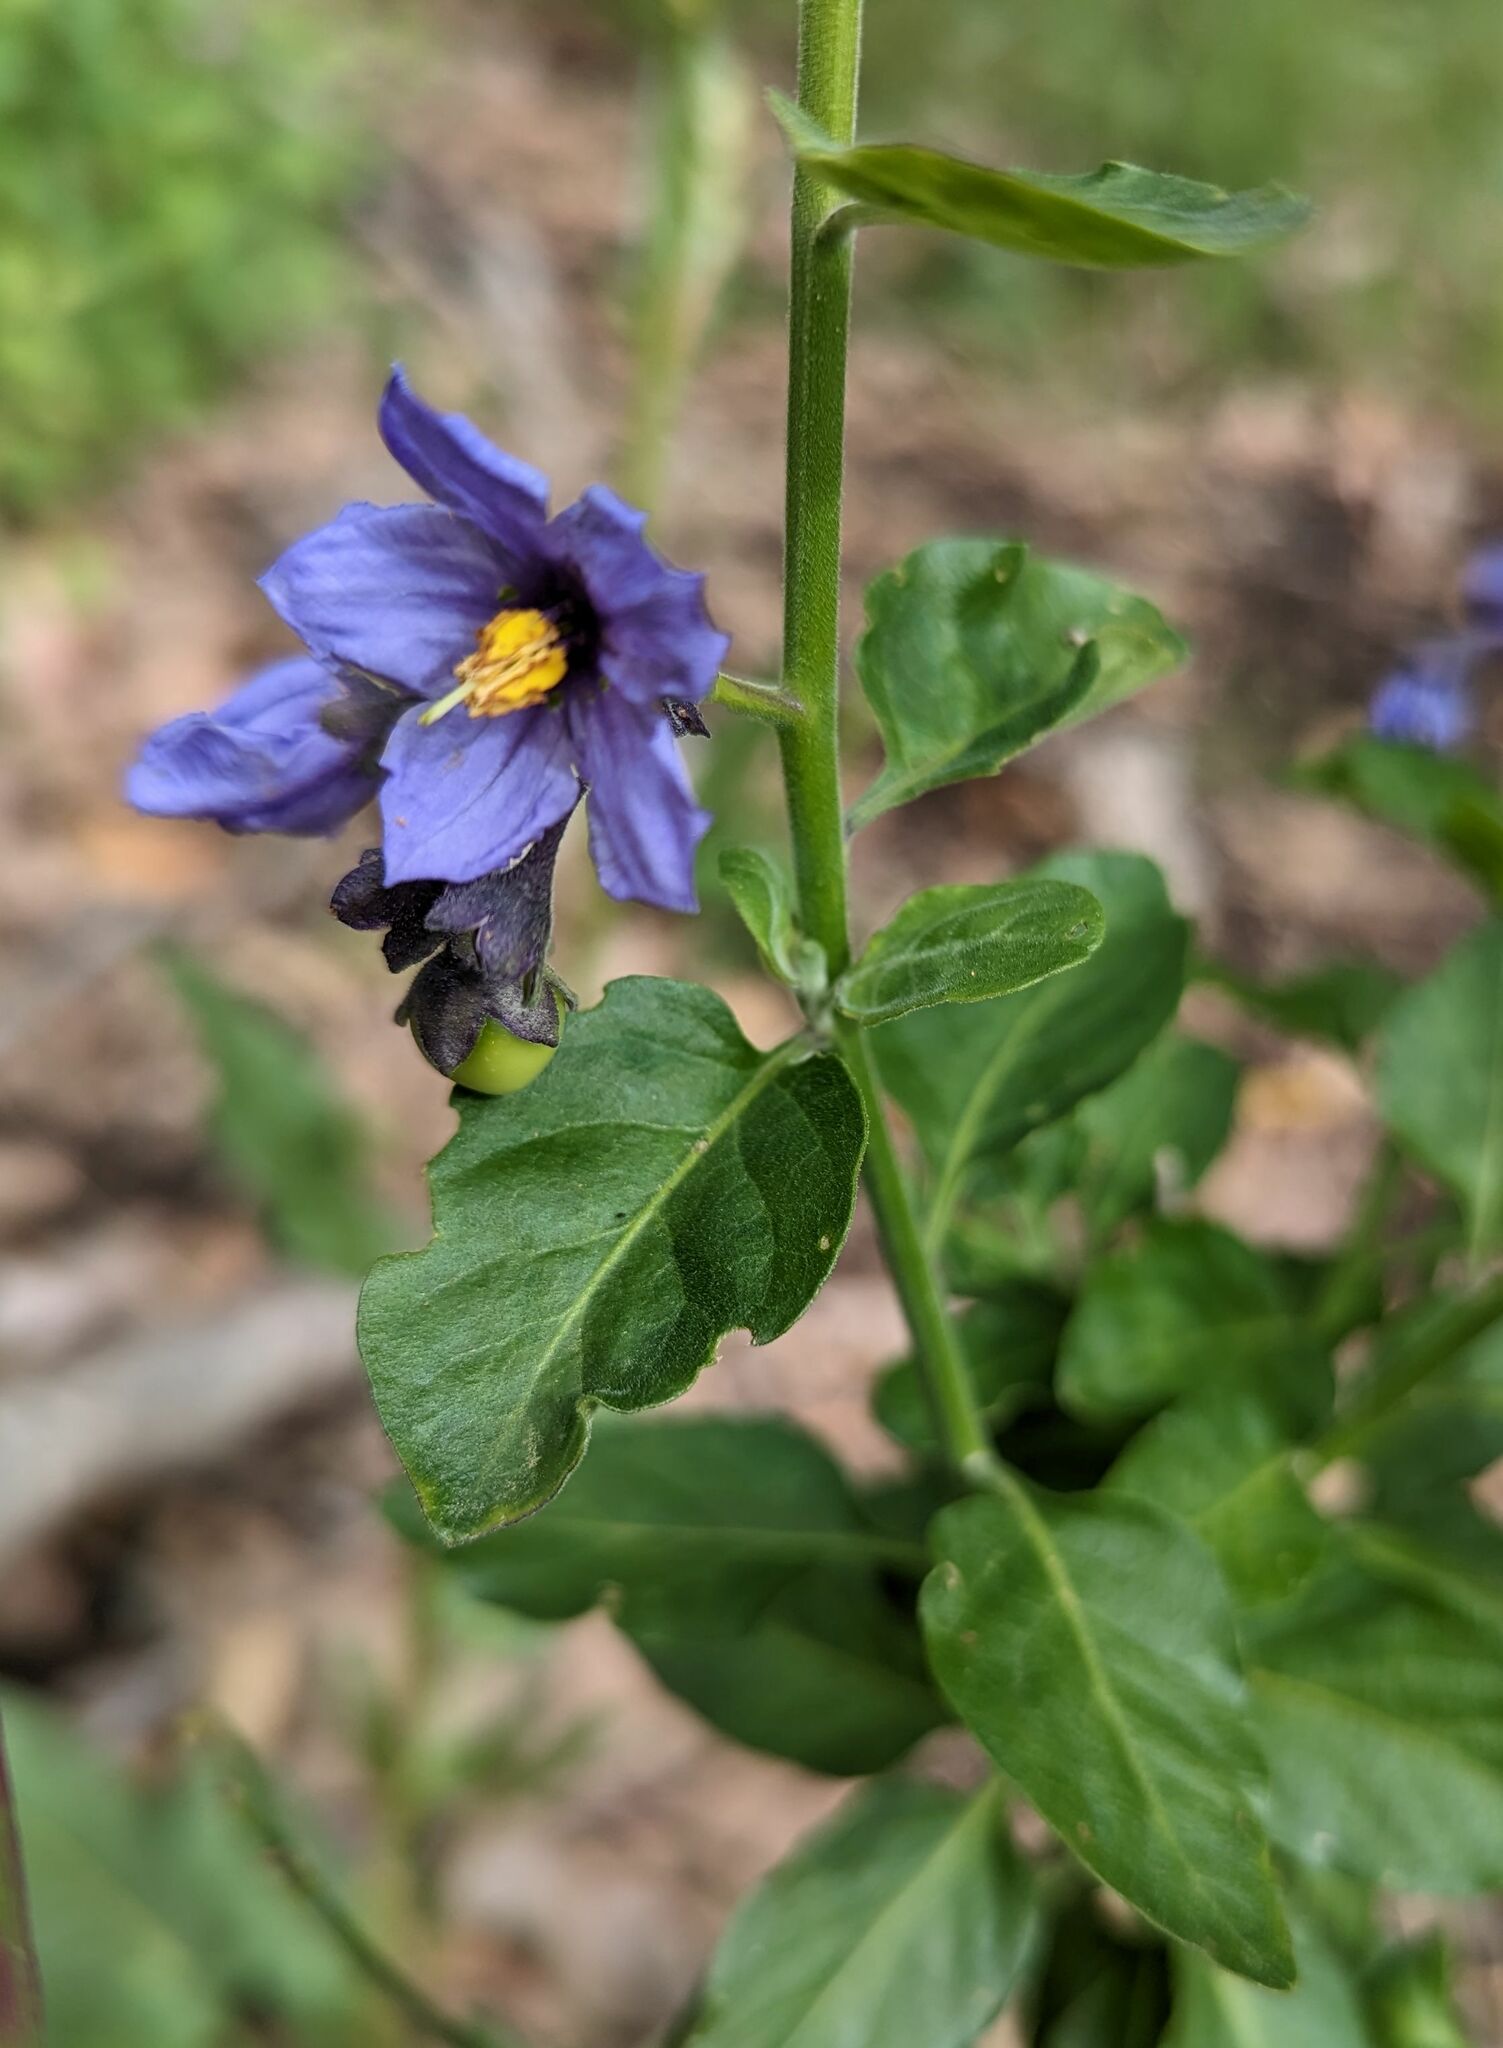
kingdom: Plantae
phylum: Tracheophyta
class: Magnoliopsida
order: Solanales
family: Solanaceae
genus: Solanum
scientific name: Solanum umbelliferum
